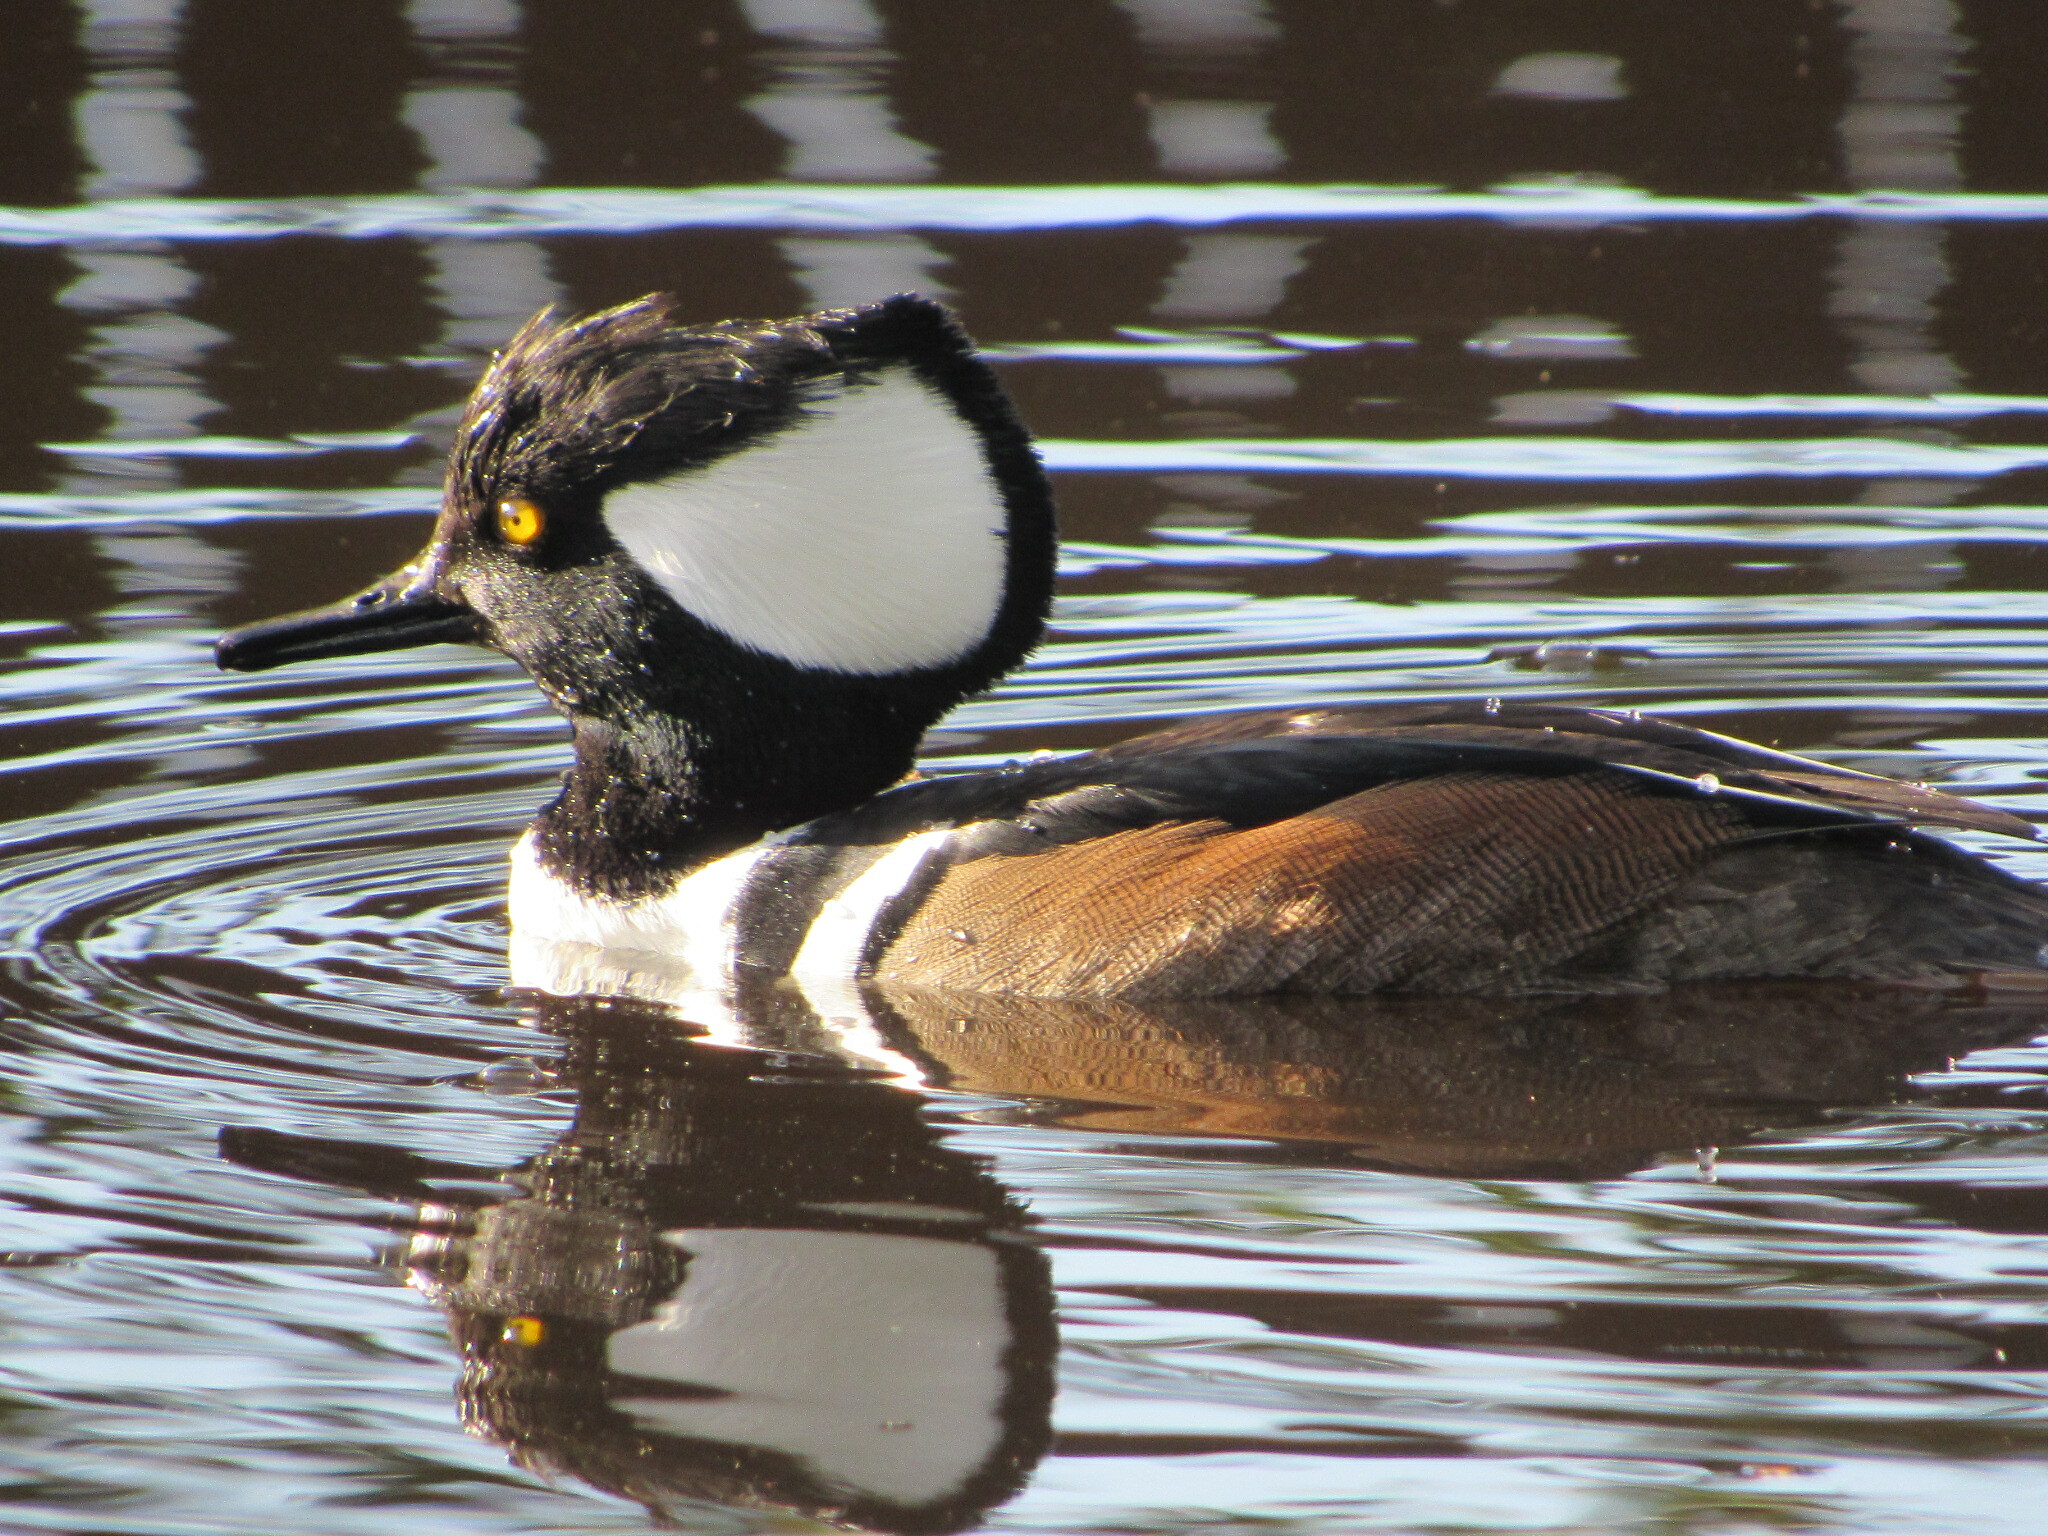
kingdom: Animalia
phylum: Chordata
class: Aves
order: Anseriformes
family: Anatidae
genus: Lophodytes
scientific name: Lophodytes cucullatus
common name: Hooded merganser
